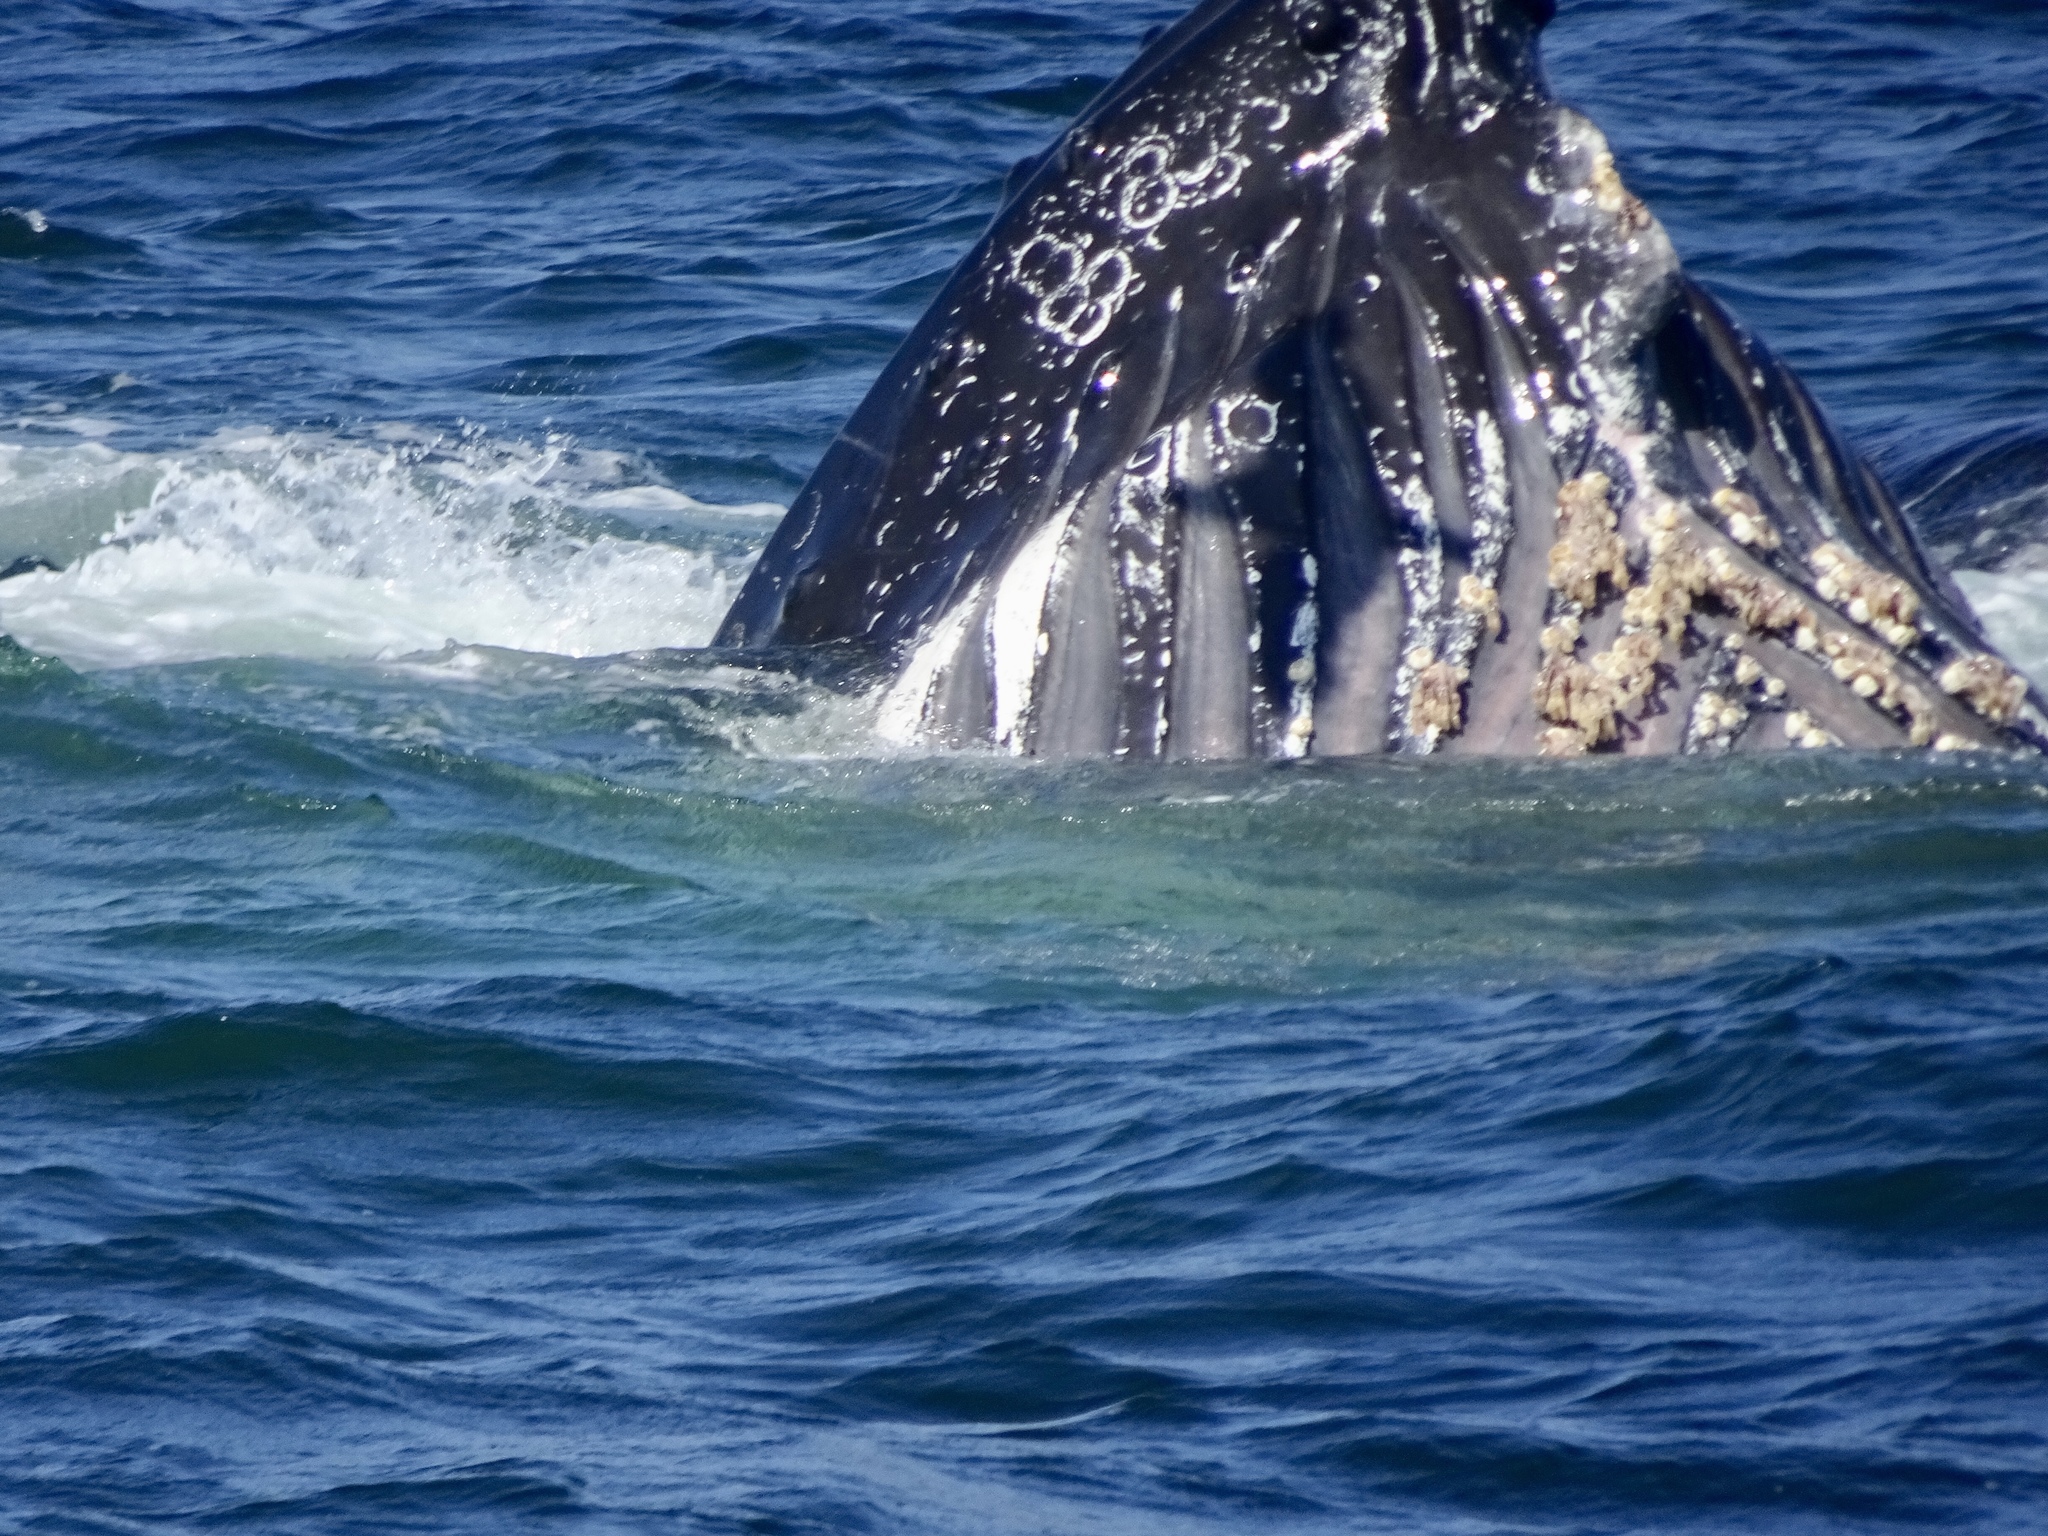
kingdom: Animalia
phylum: Chordata
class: Mammalia
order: Cetacea
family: Balaenopteridae
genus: Megaptera
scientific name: Megaptera novaeangliae
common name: Humpback whale
